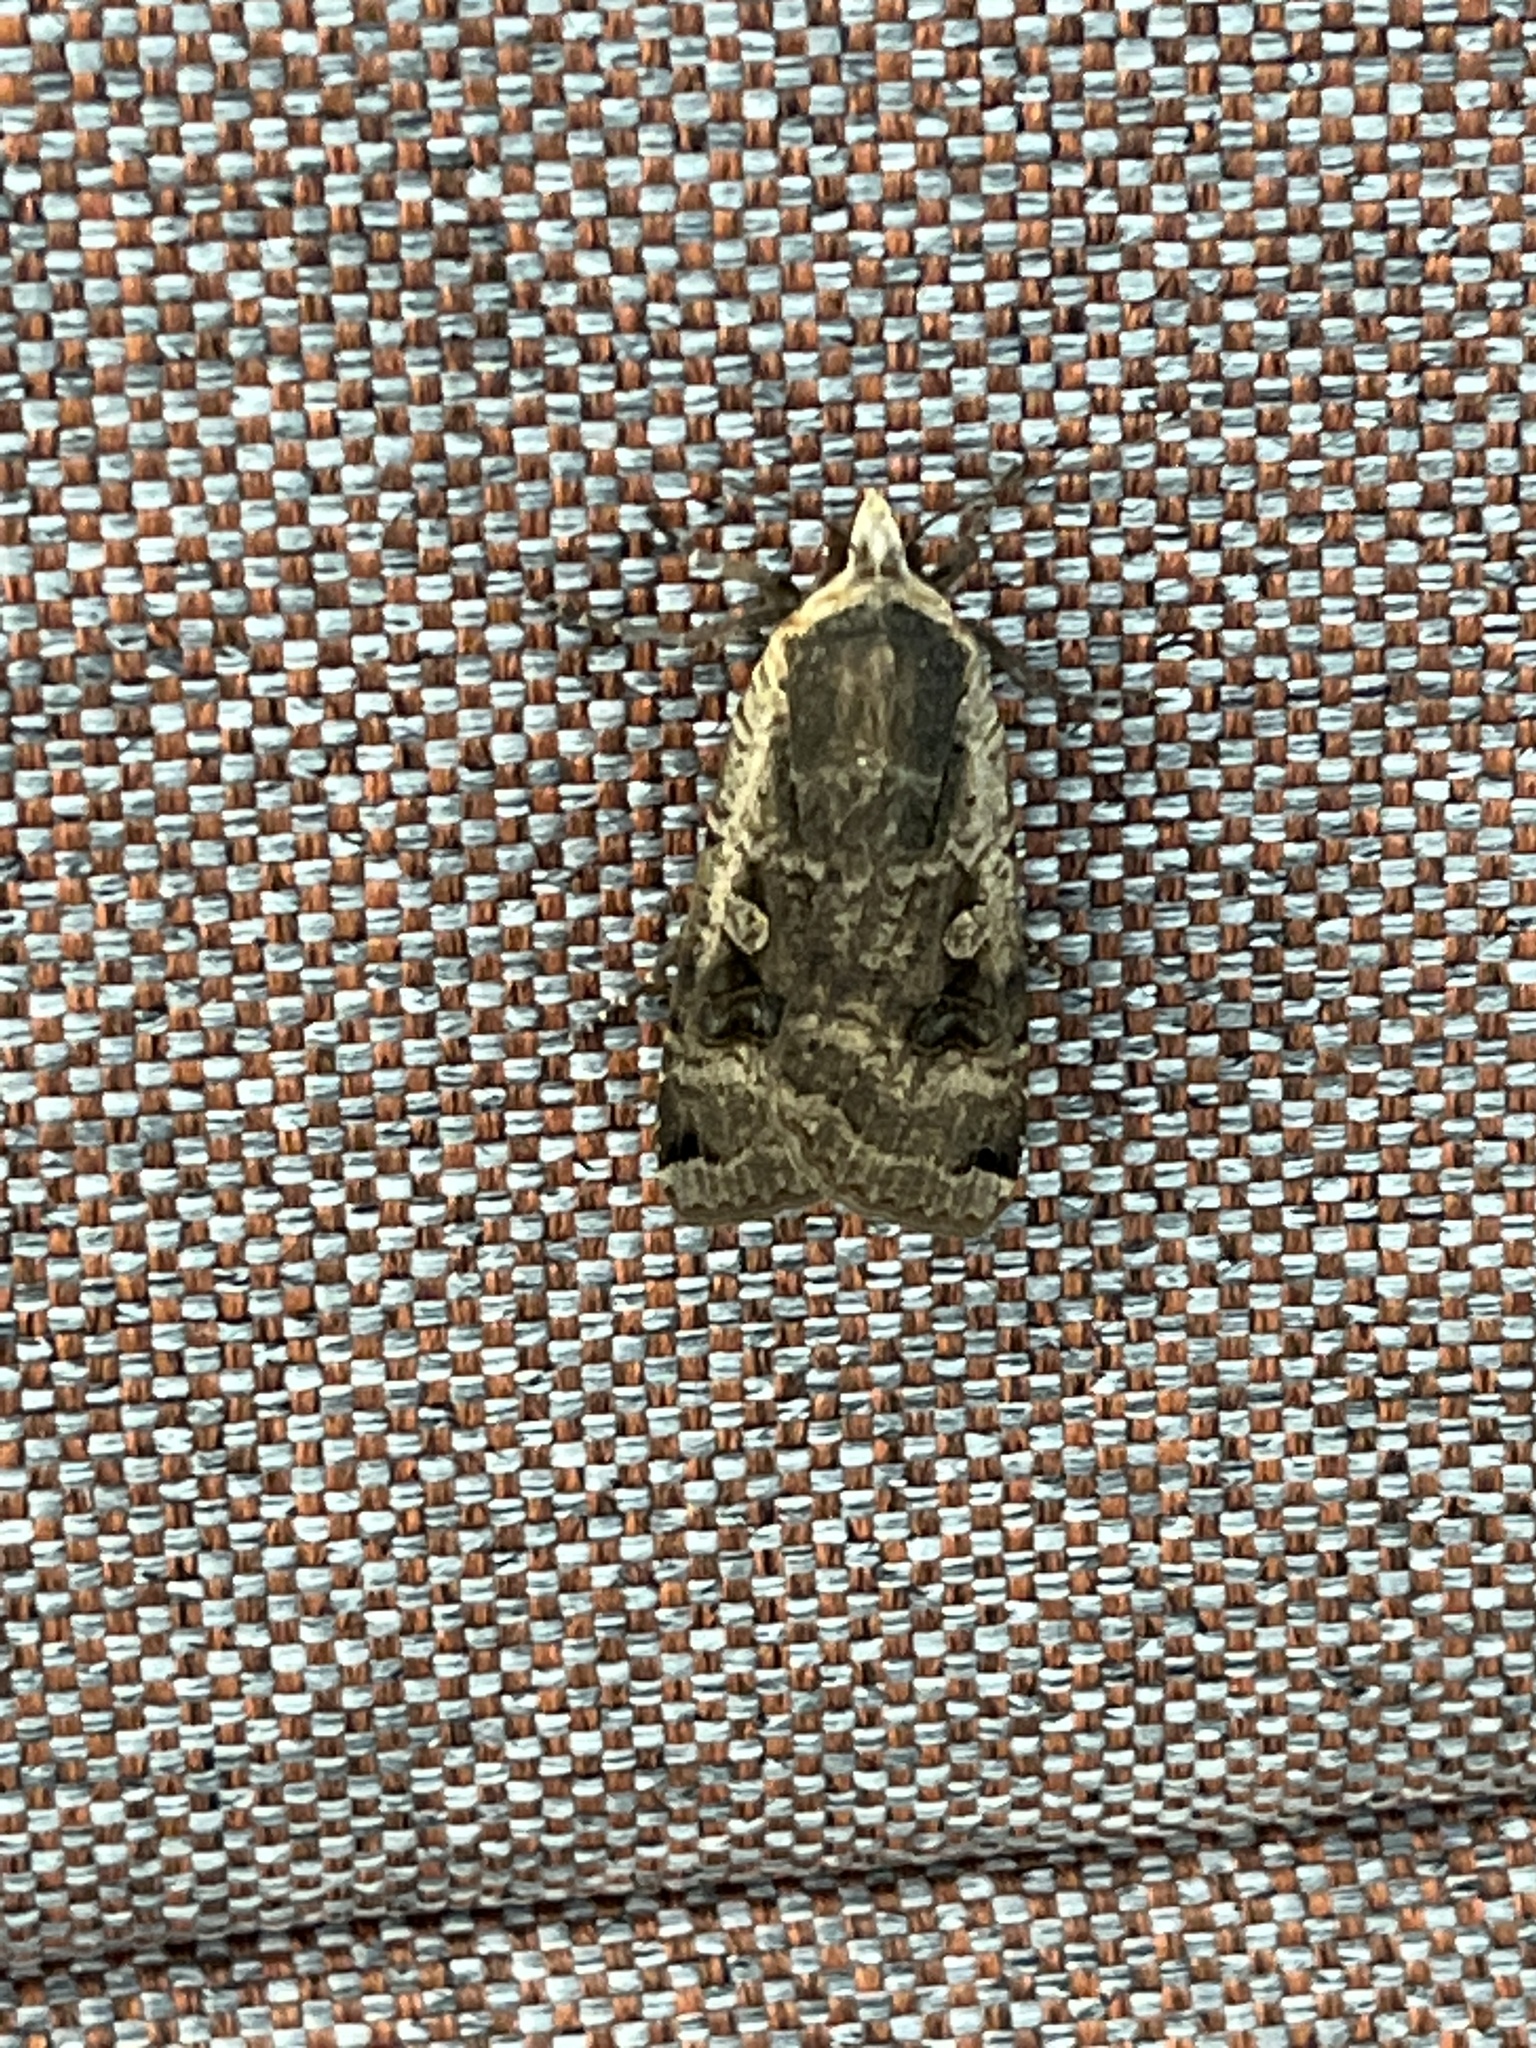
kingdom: Animalia
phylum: Arthropoda
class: Insecta
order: Lepidoptera
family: Noctuidae
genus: Noctua
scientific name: Noctua pronuba
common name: Large yellow underwing
